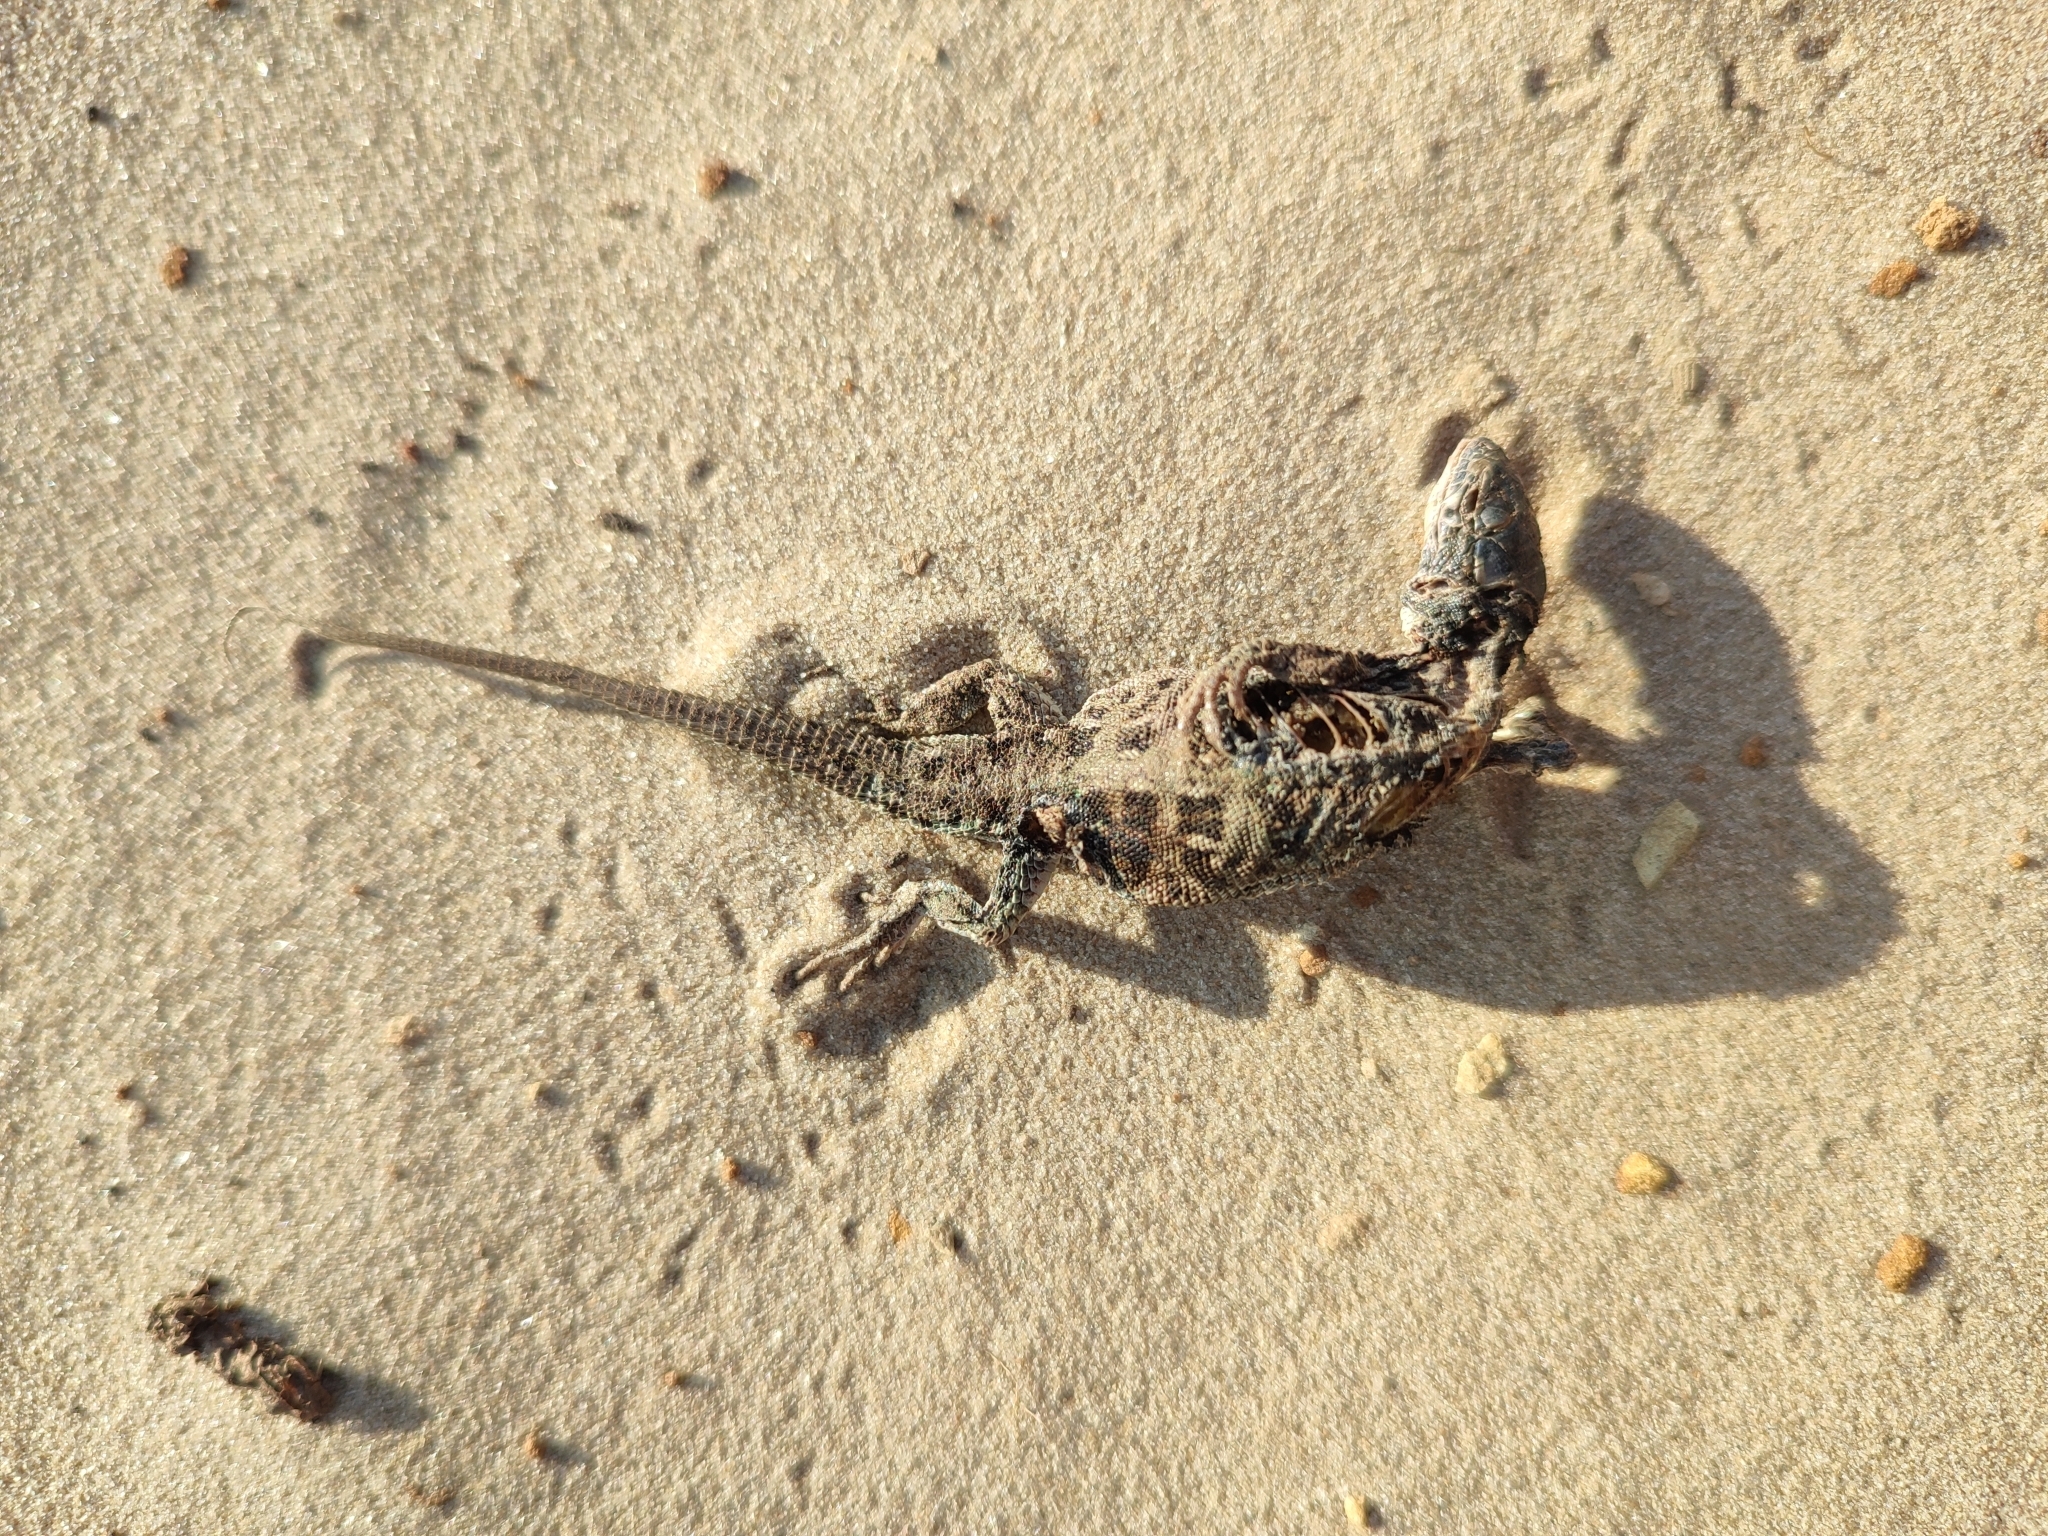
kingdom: Animalia
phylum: Chordata
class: Squamata
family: Lacertidae
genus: Eremias
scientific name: Eremias arguta
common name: Racerunner
